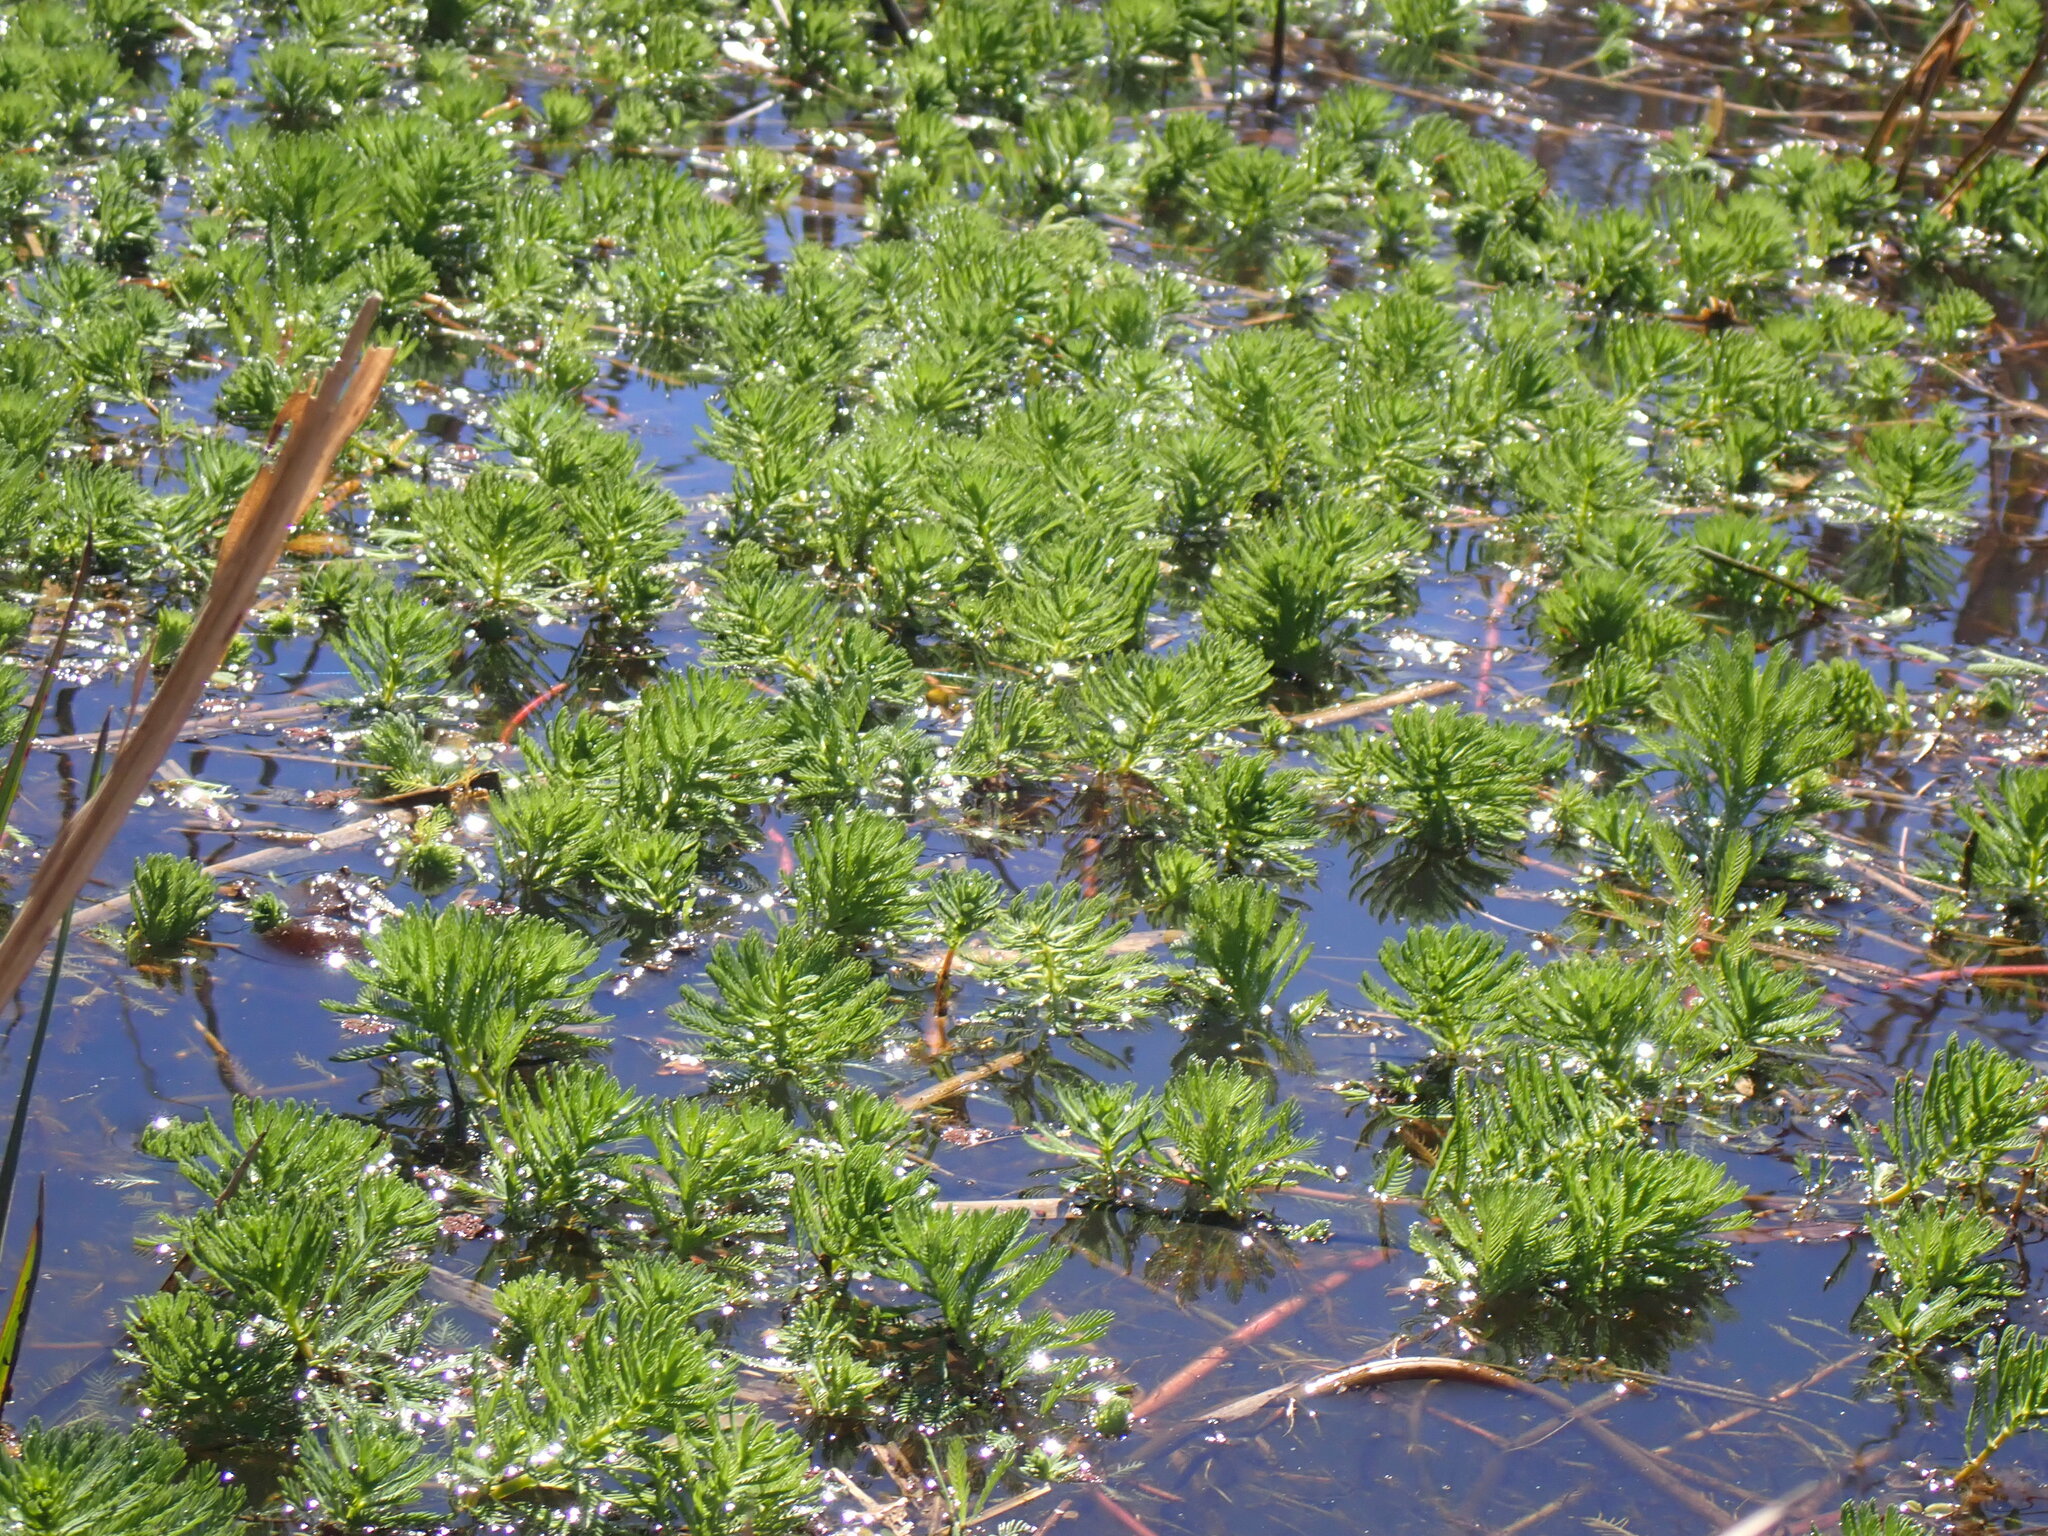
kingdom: Plantae
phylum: Tracheophyta
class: Magnoliopsida
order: Saxifragales
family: Haloragaceae
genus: Myriophyllum
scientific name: Myriophyllum aquaticum
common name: Parrot's feather
